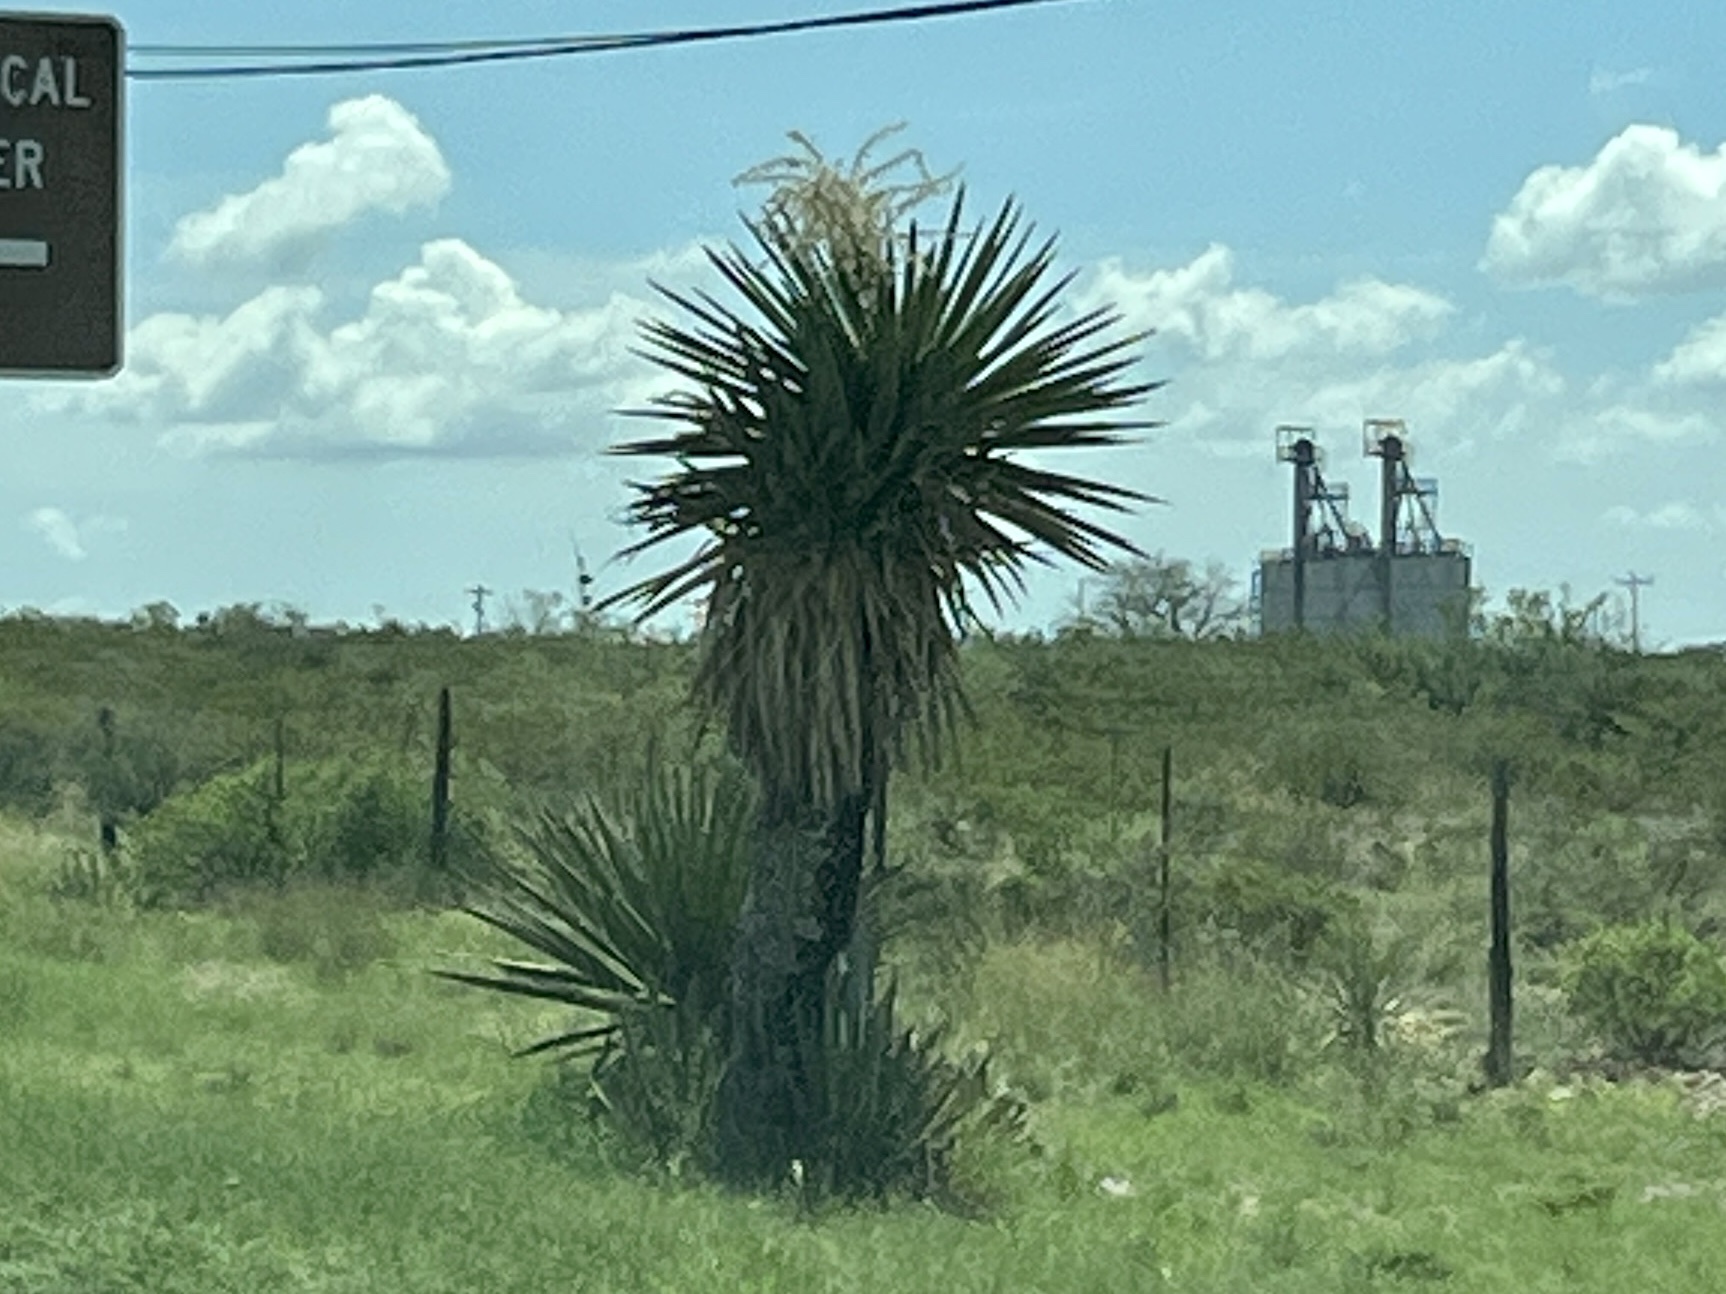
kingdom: Plantae
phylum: Tracheophyta
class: Liliopsida
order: Asparagales
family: Asparagaceae
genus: Yucca
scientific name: Yucca faxoniana
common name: Spanish dagger
